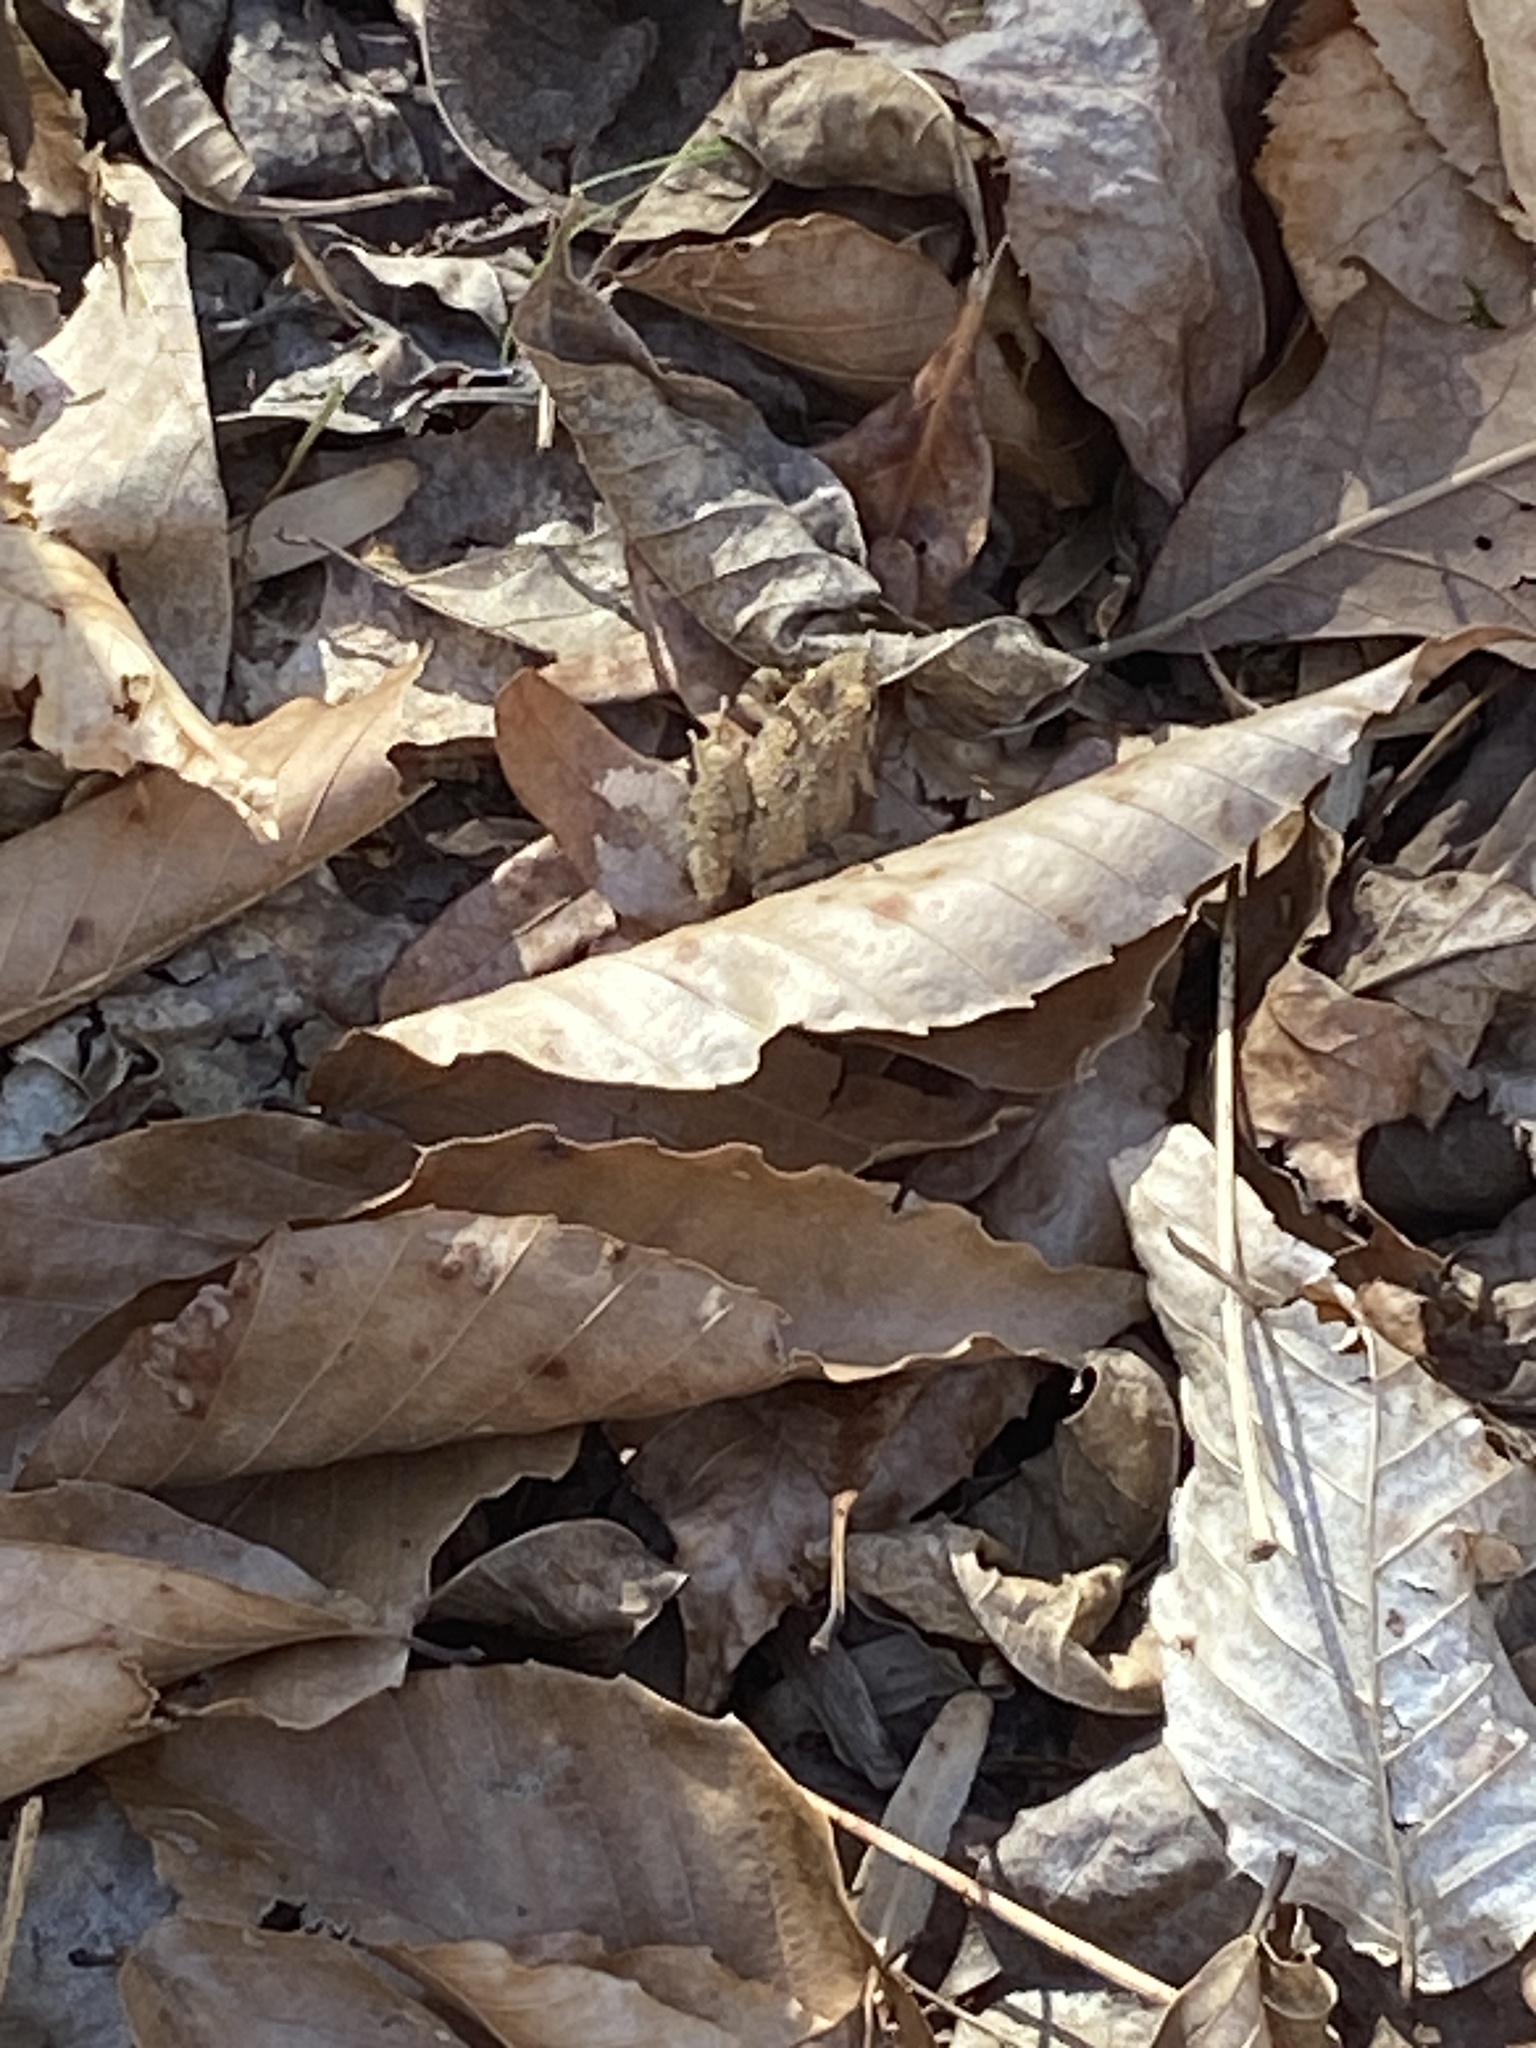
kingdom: Animalia
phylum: Chordata
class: Amphibia
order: Anura
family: Hylidae
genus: Acris
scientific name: Acris crepitans
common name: Northern cricket frog
